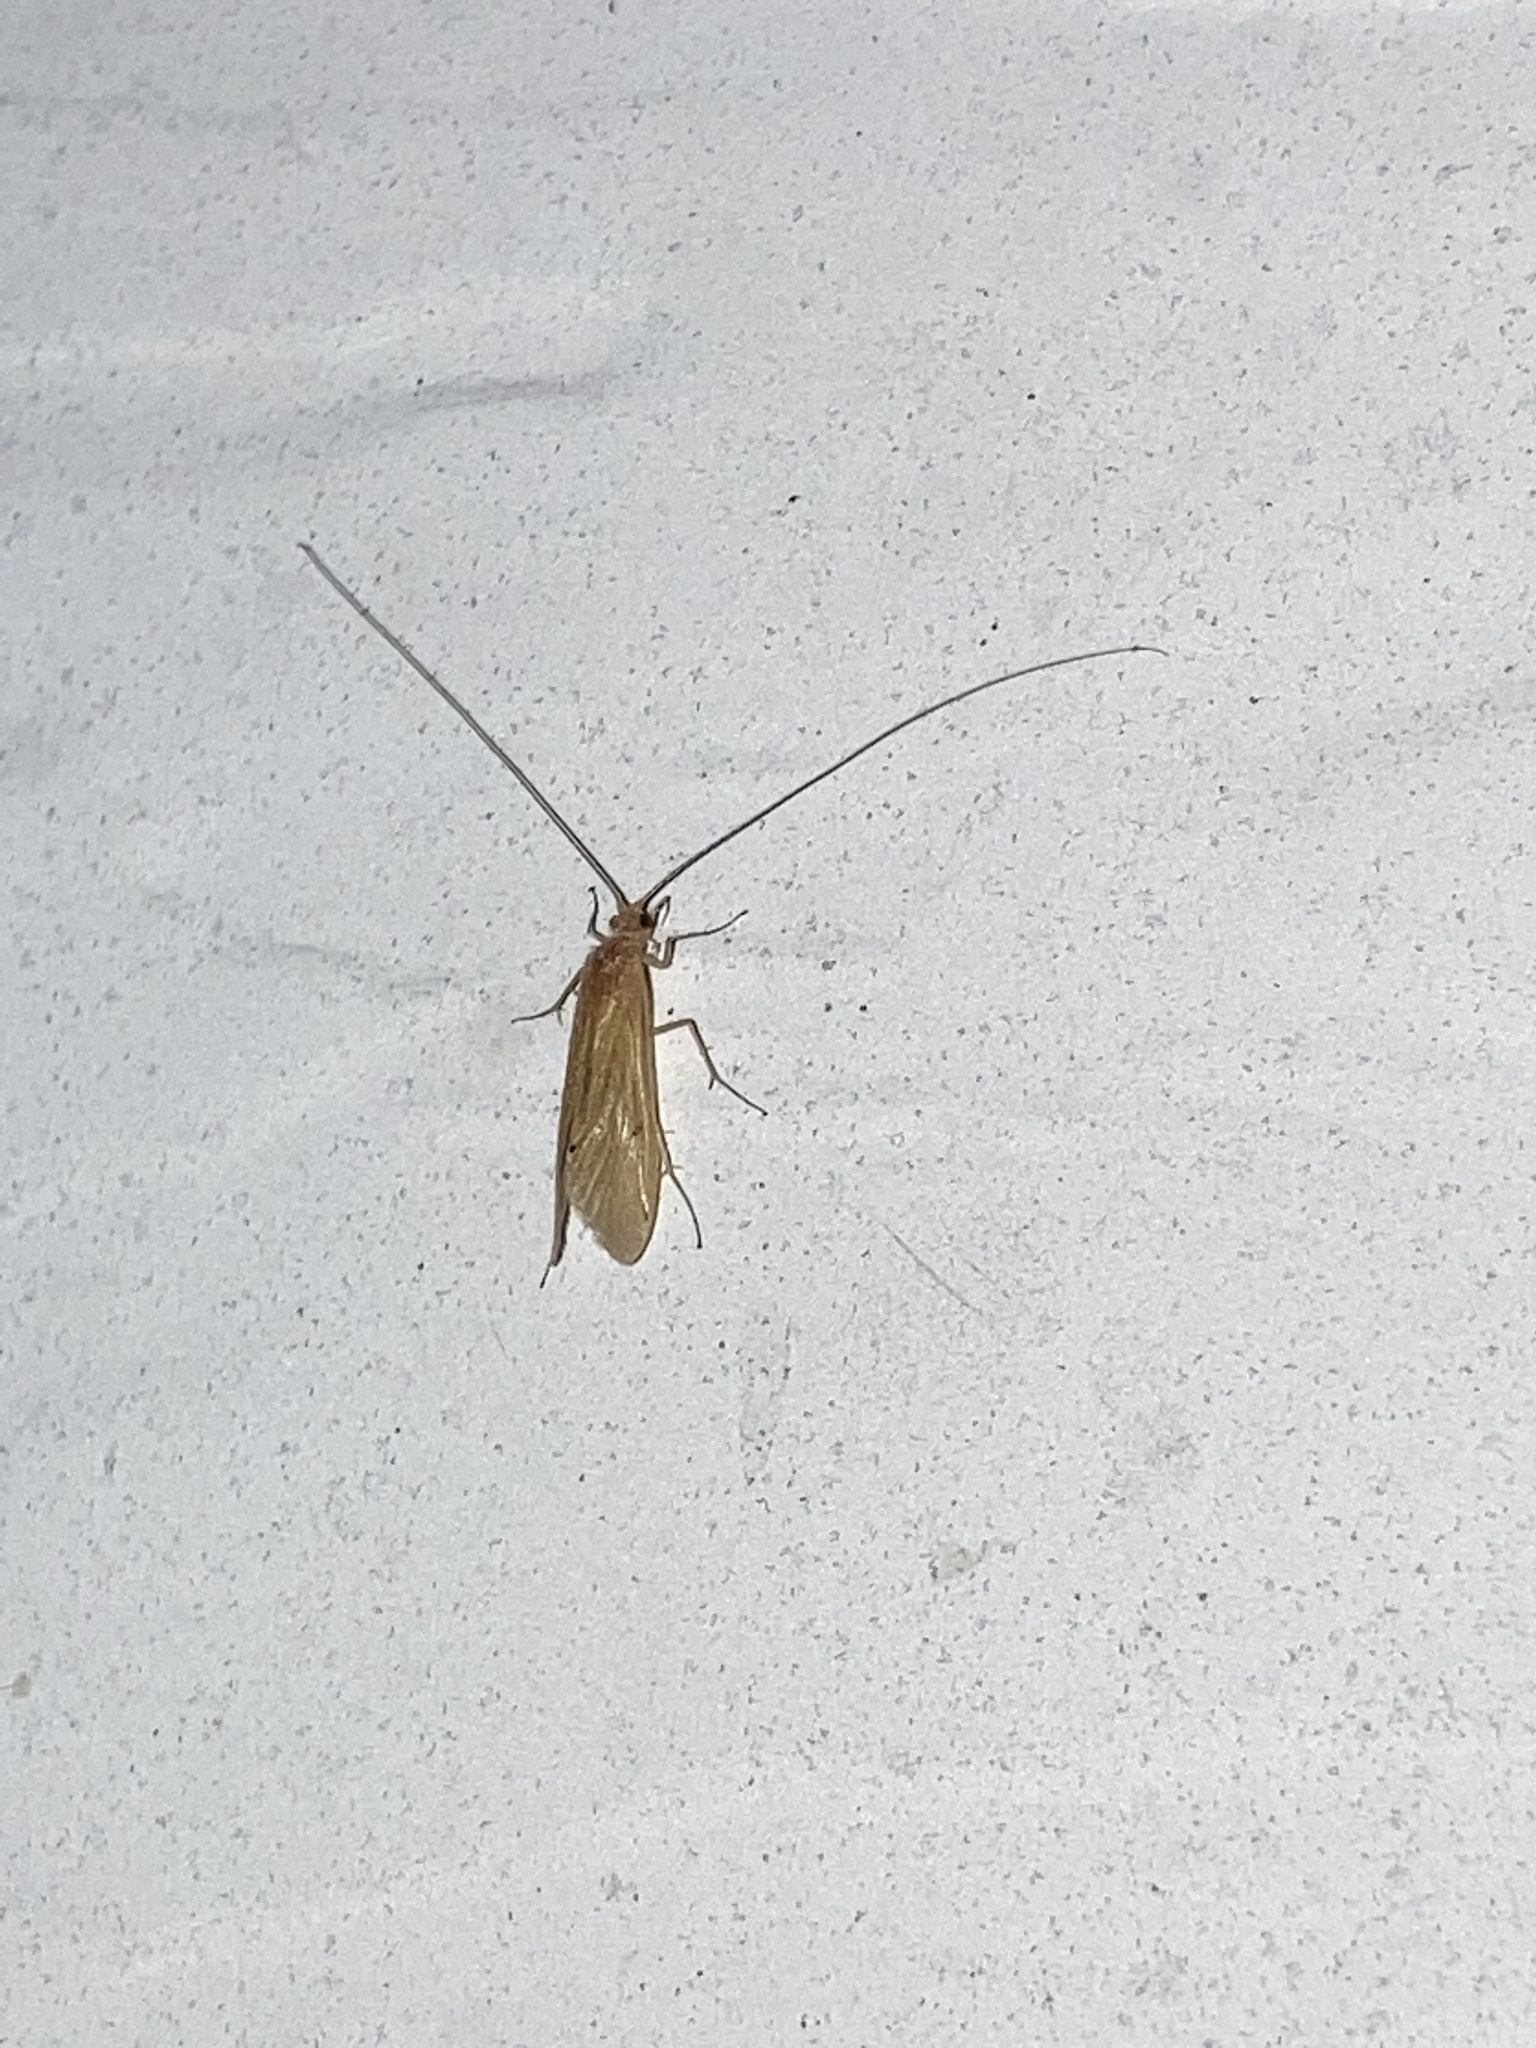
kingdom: Animalia
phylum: Arthropoda
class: Insecta
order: Trichoptera
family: Hydropsychidae
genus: Potamyia
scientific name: Potamyia flava
